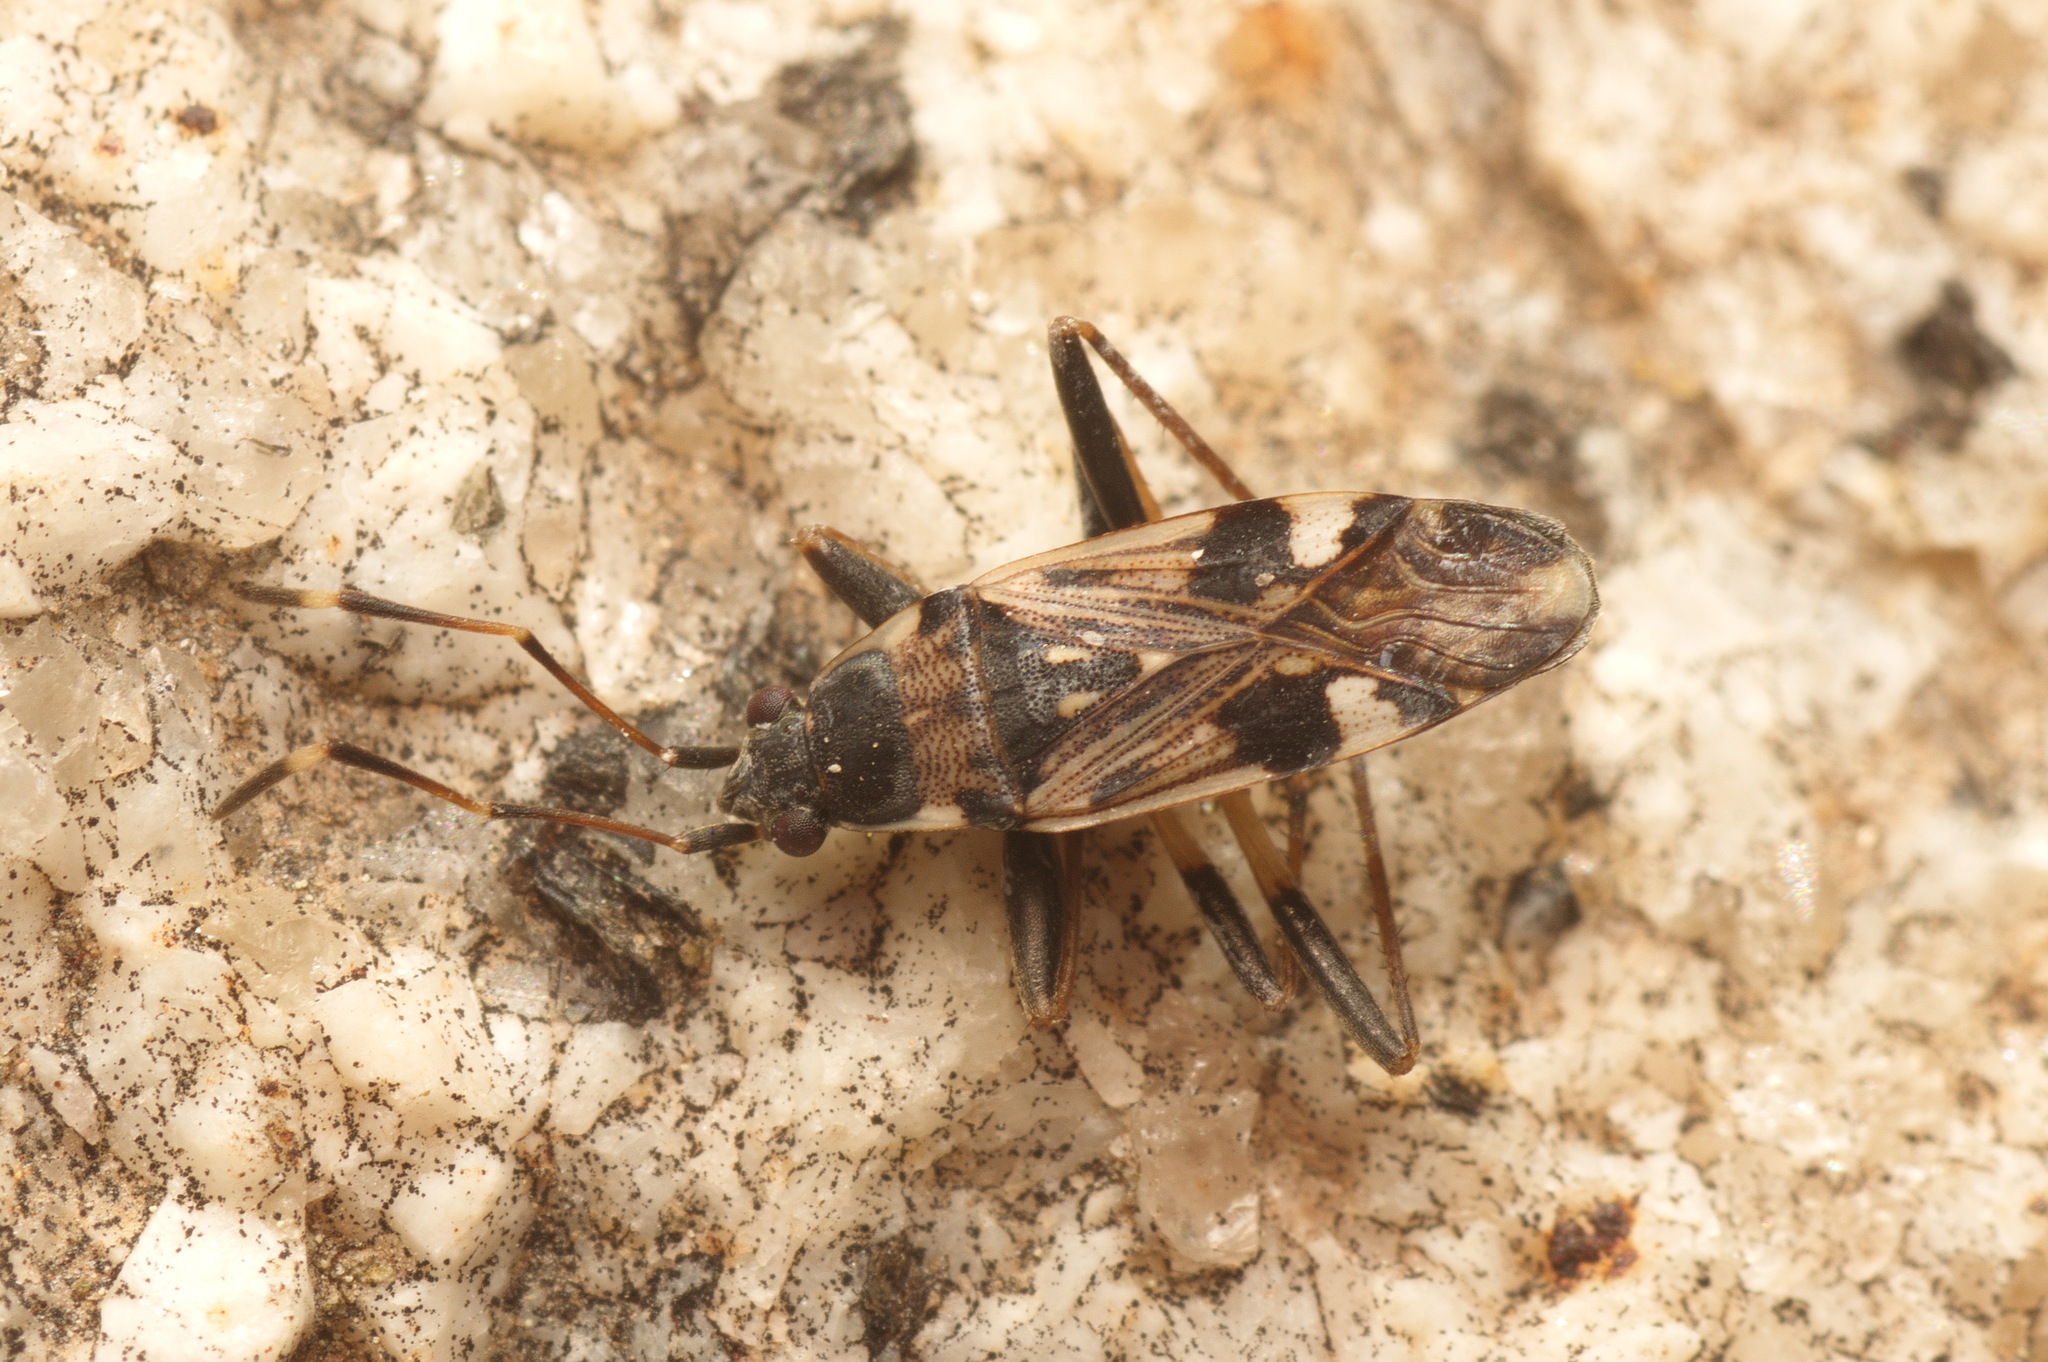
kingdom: Animalia
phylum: Arthropoda
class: Insecta
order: Hemiptera
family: Rhyparochromidae
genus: Beosus
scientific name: Beosus maritimus
